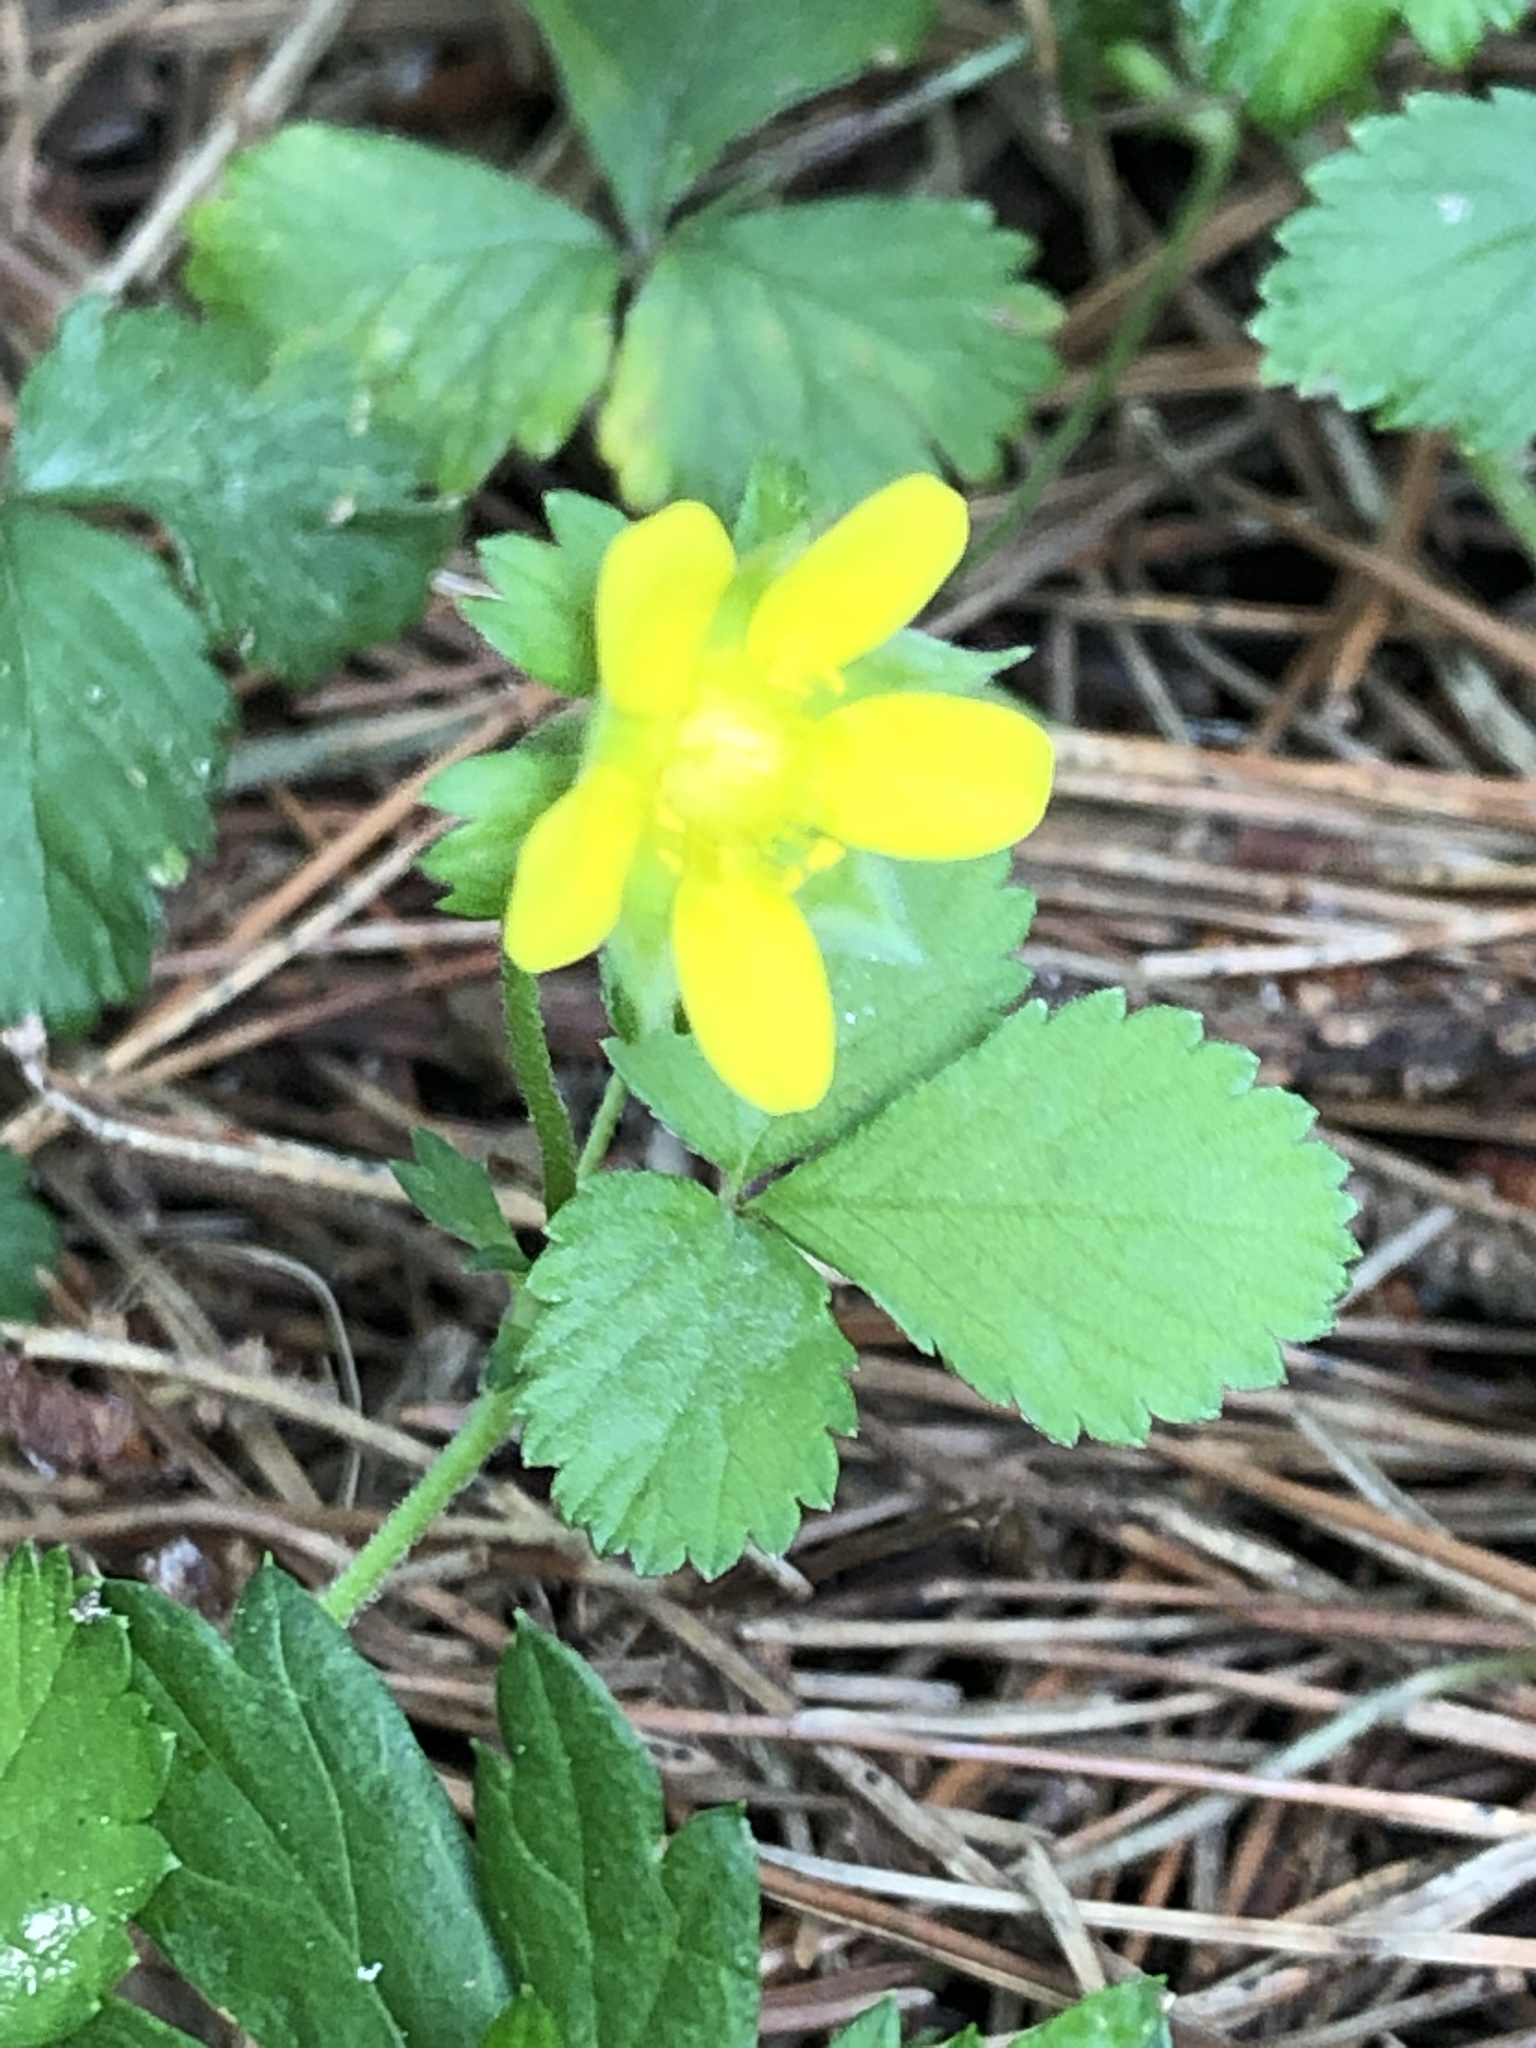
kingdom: Plantae
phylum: Tracheophyta
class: Magnoliopsida
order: Rosales
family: Rosaceae
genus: Potentilla
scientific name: Potentilla indica
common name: Yellow-flowered strawberry
